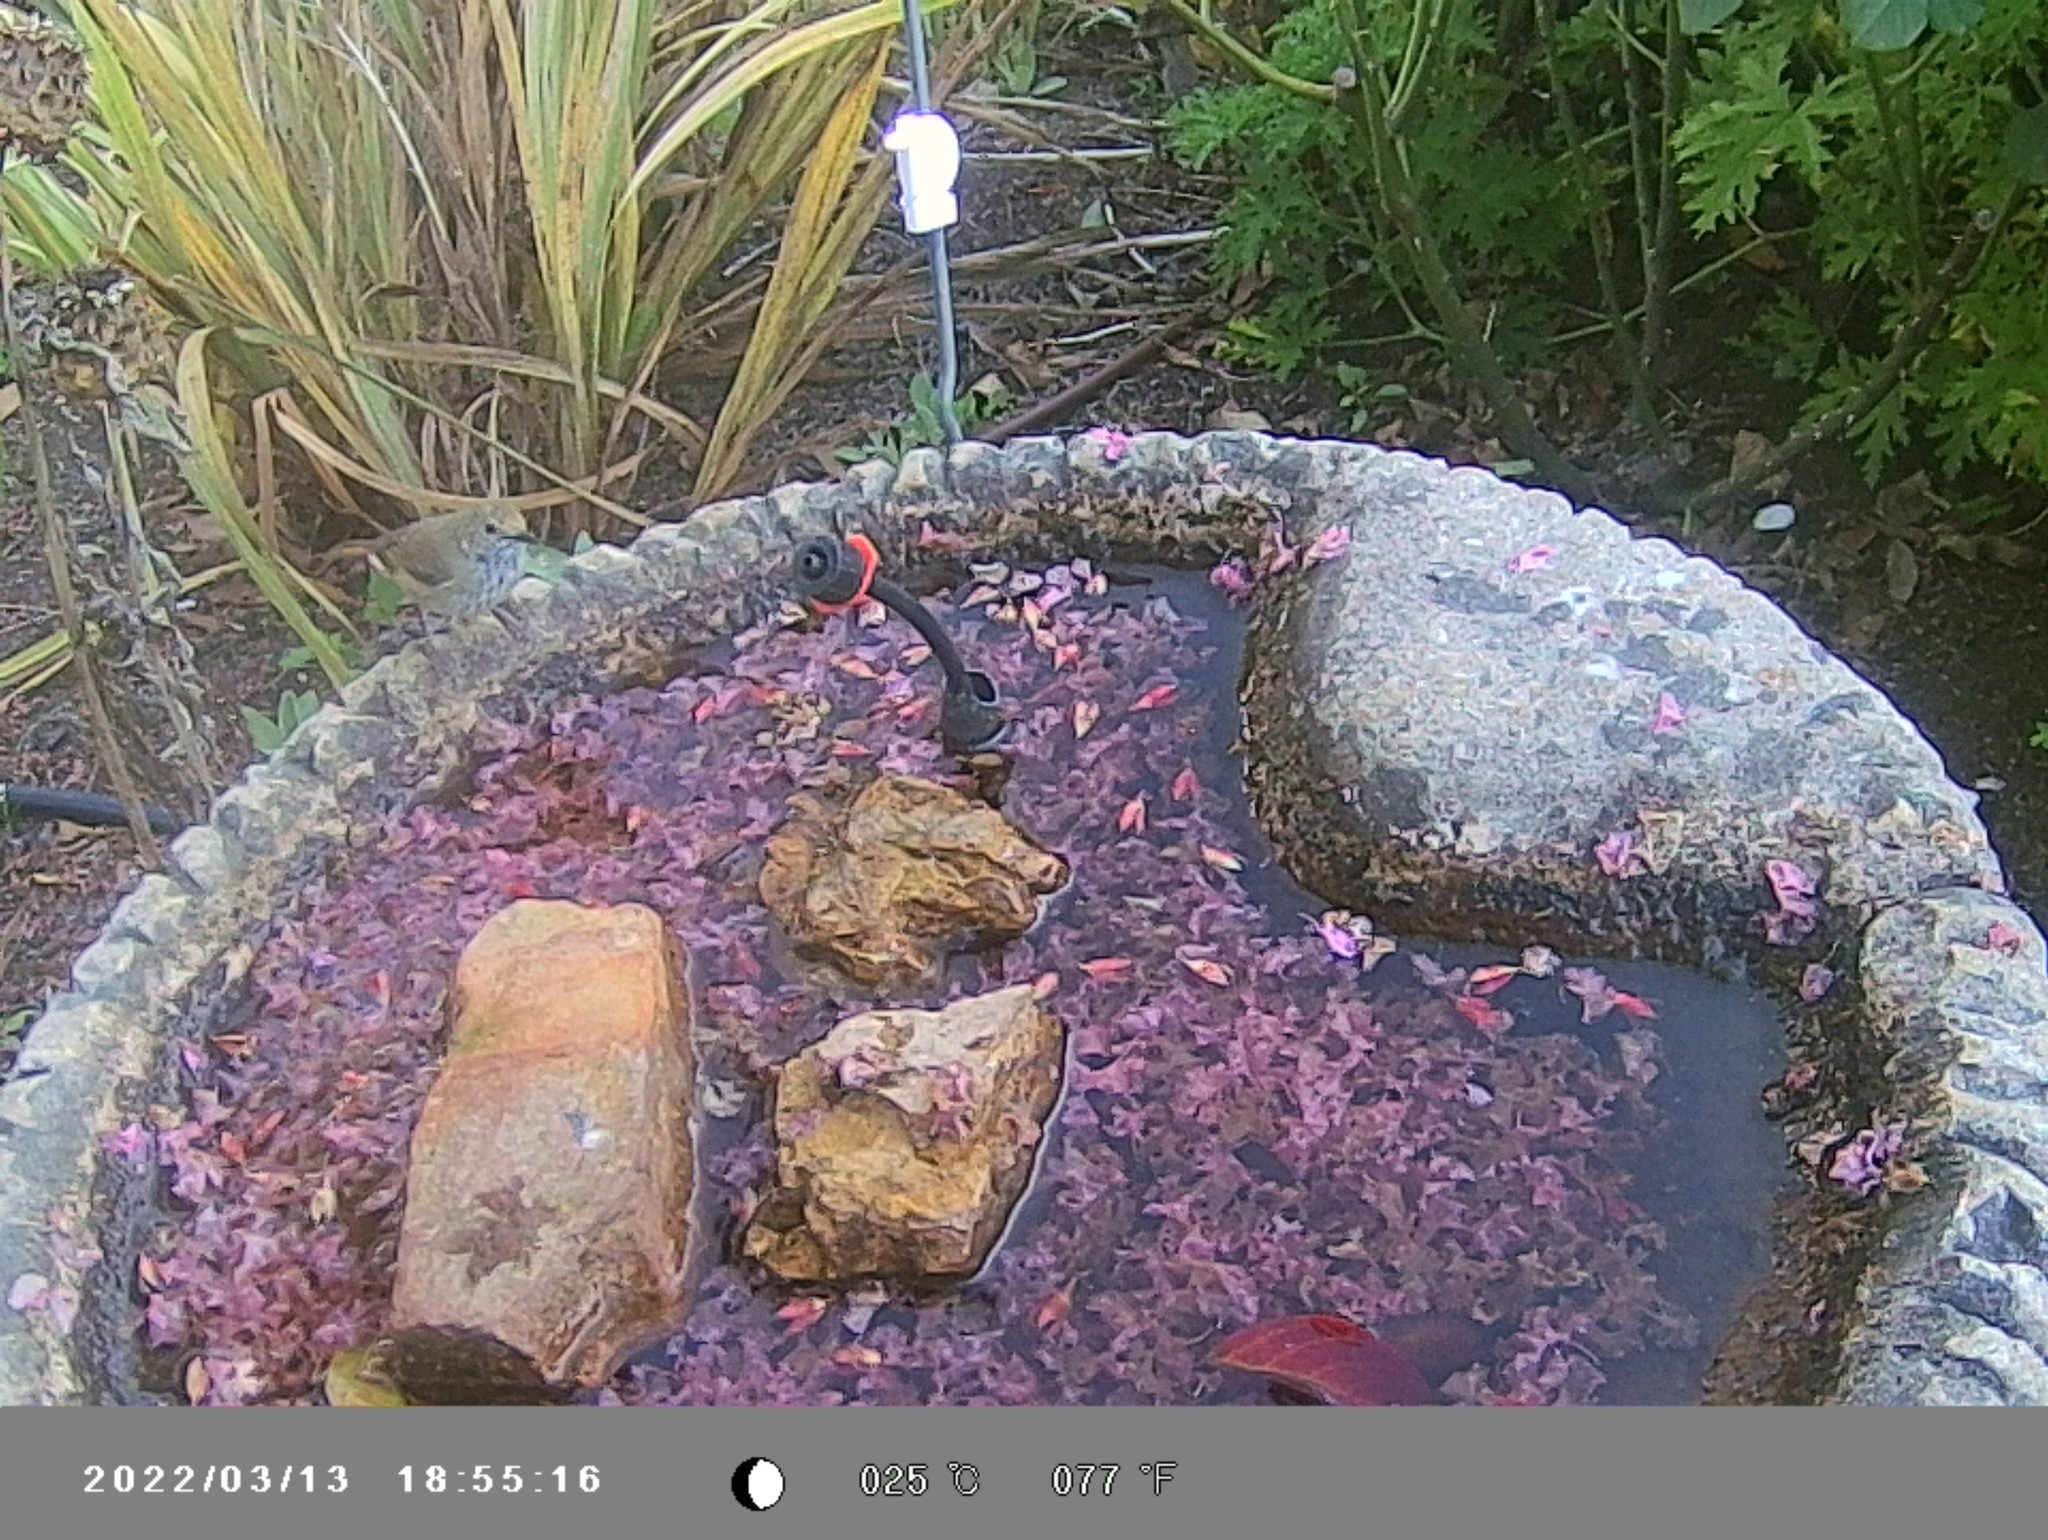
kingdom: Animalia
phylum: Chordata
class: Aves
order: Passeriformes
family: Acanthizidae
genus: Acanthiza
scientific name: Acanthiza pusilla
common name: Brown thornbill
